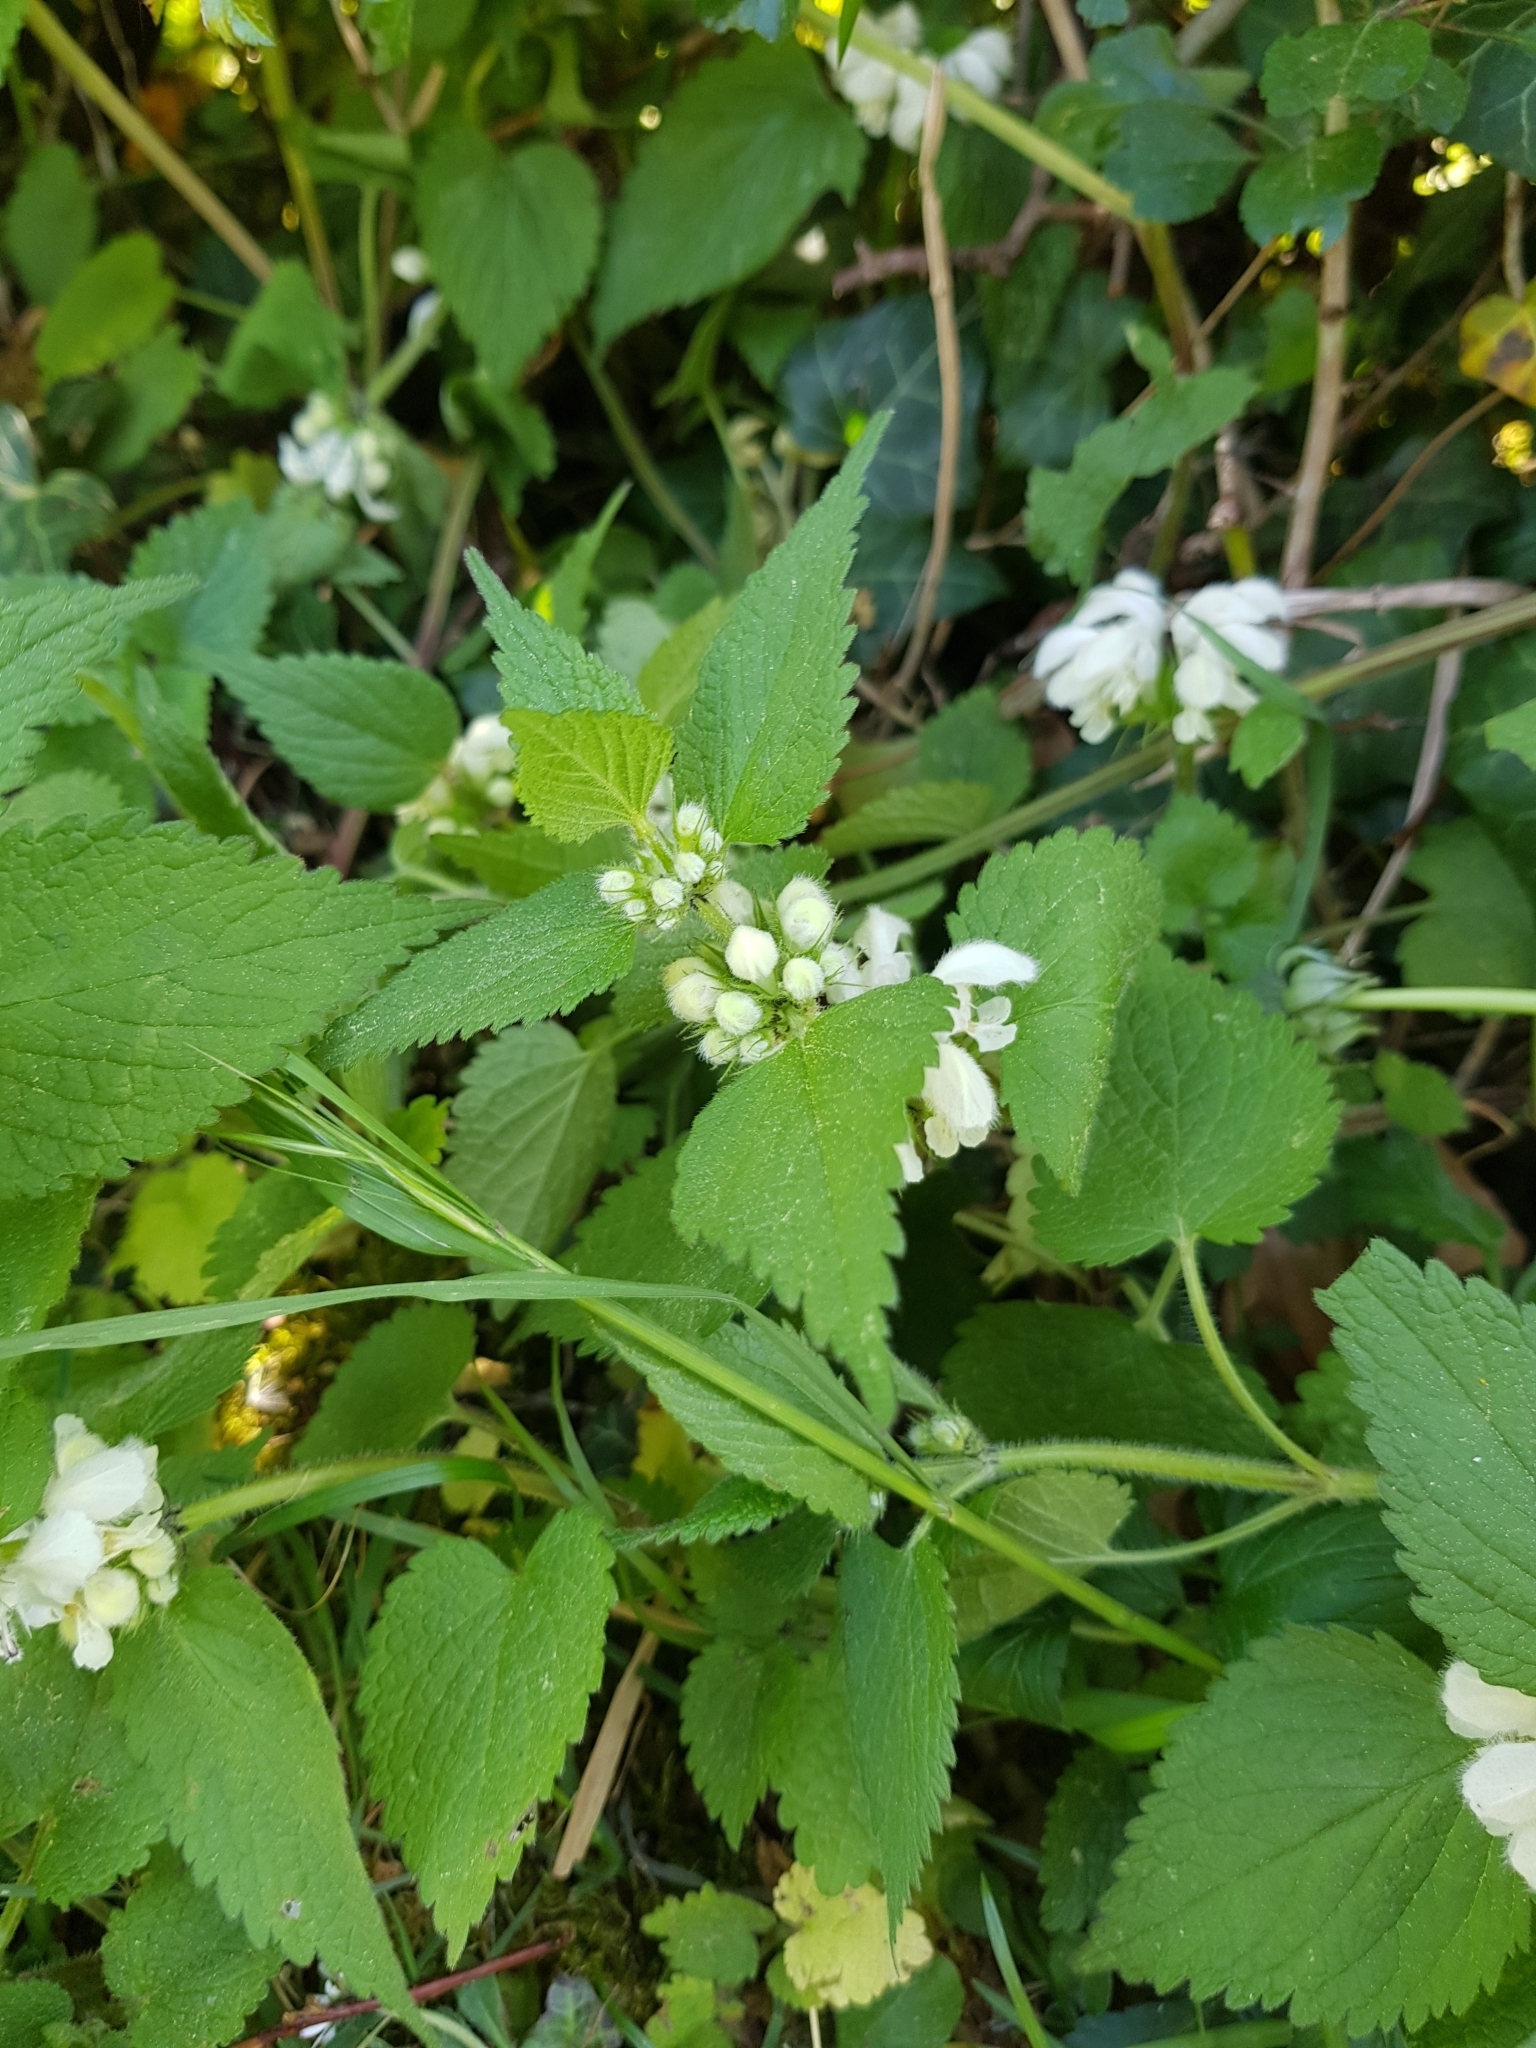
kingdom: Plantae
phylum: Tracheophyta
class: Magnoliopsida
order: Lamiales
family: Lamiaceae
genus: Lamium
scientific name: Lamium album
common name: White dead-nettle
